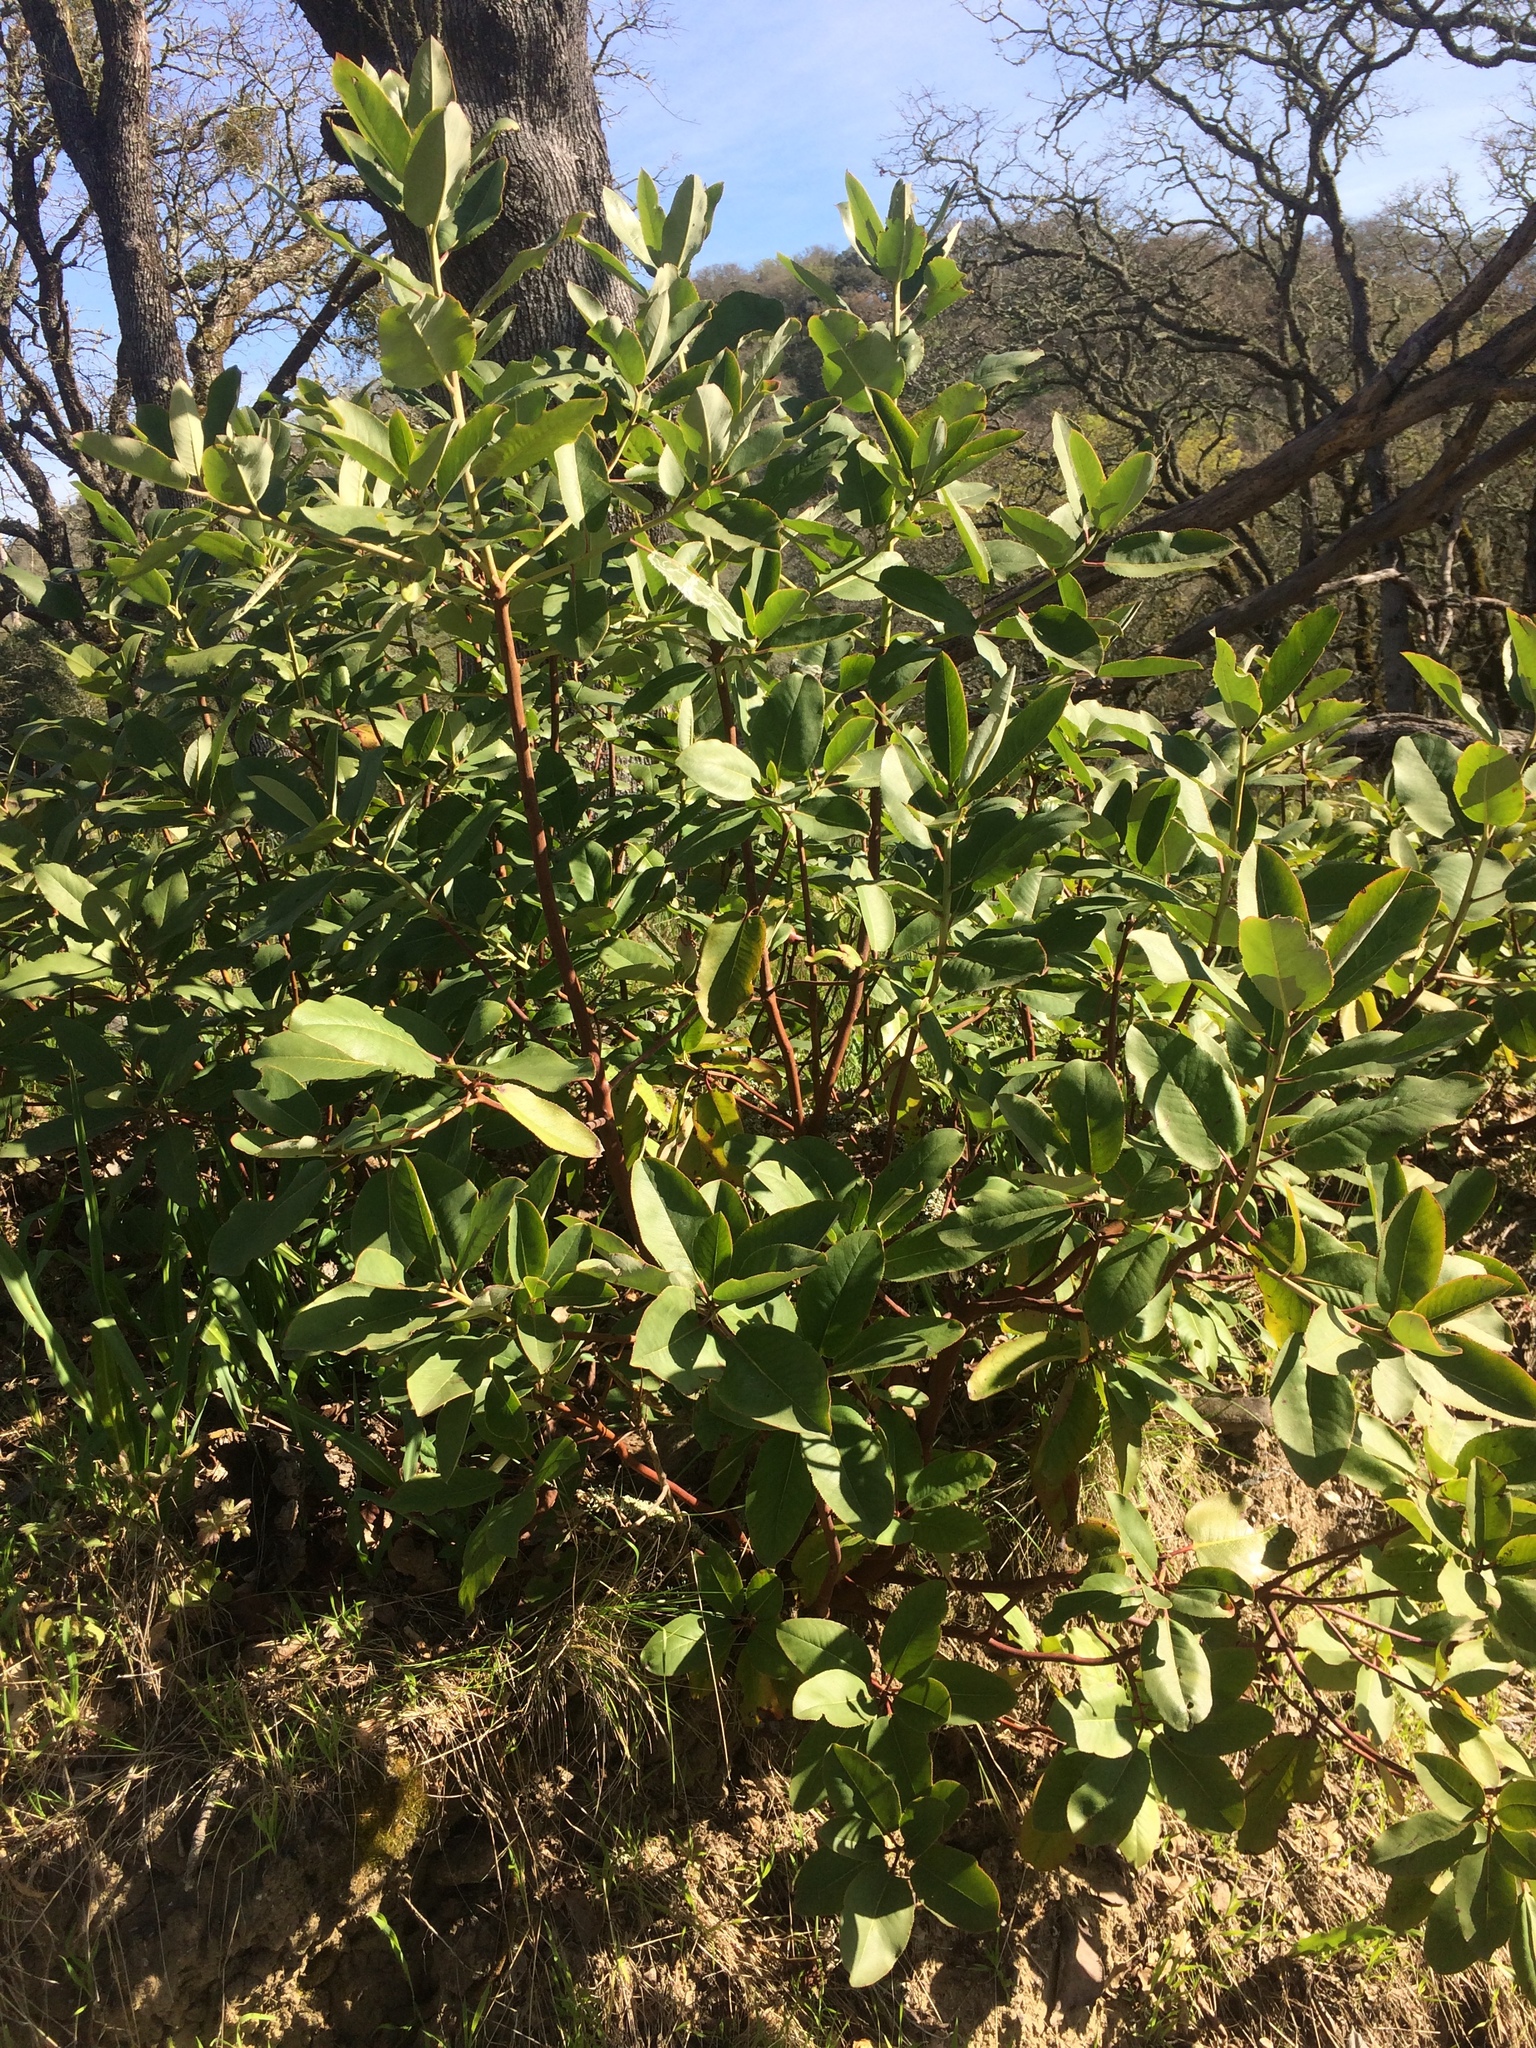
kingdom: Plantae
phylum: Tracheophyta
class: Magnoliopsida
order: Ericales
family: Ericaceae
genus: Arbutus
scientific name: Arbutus menziesii
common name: Pacific madrone
